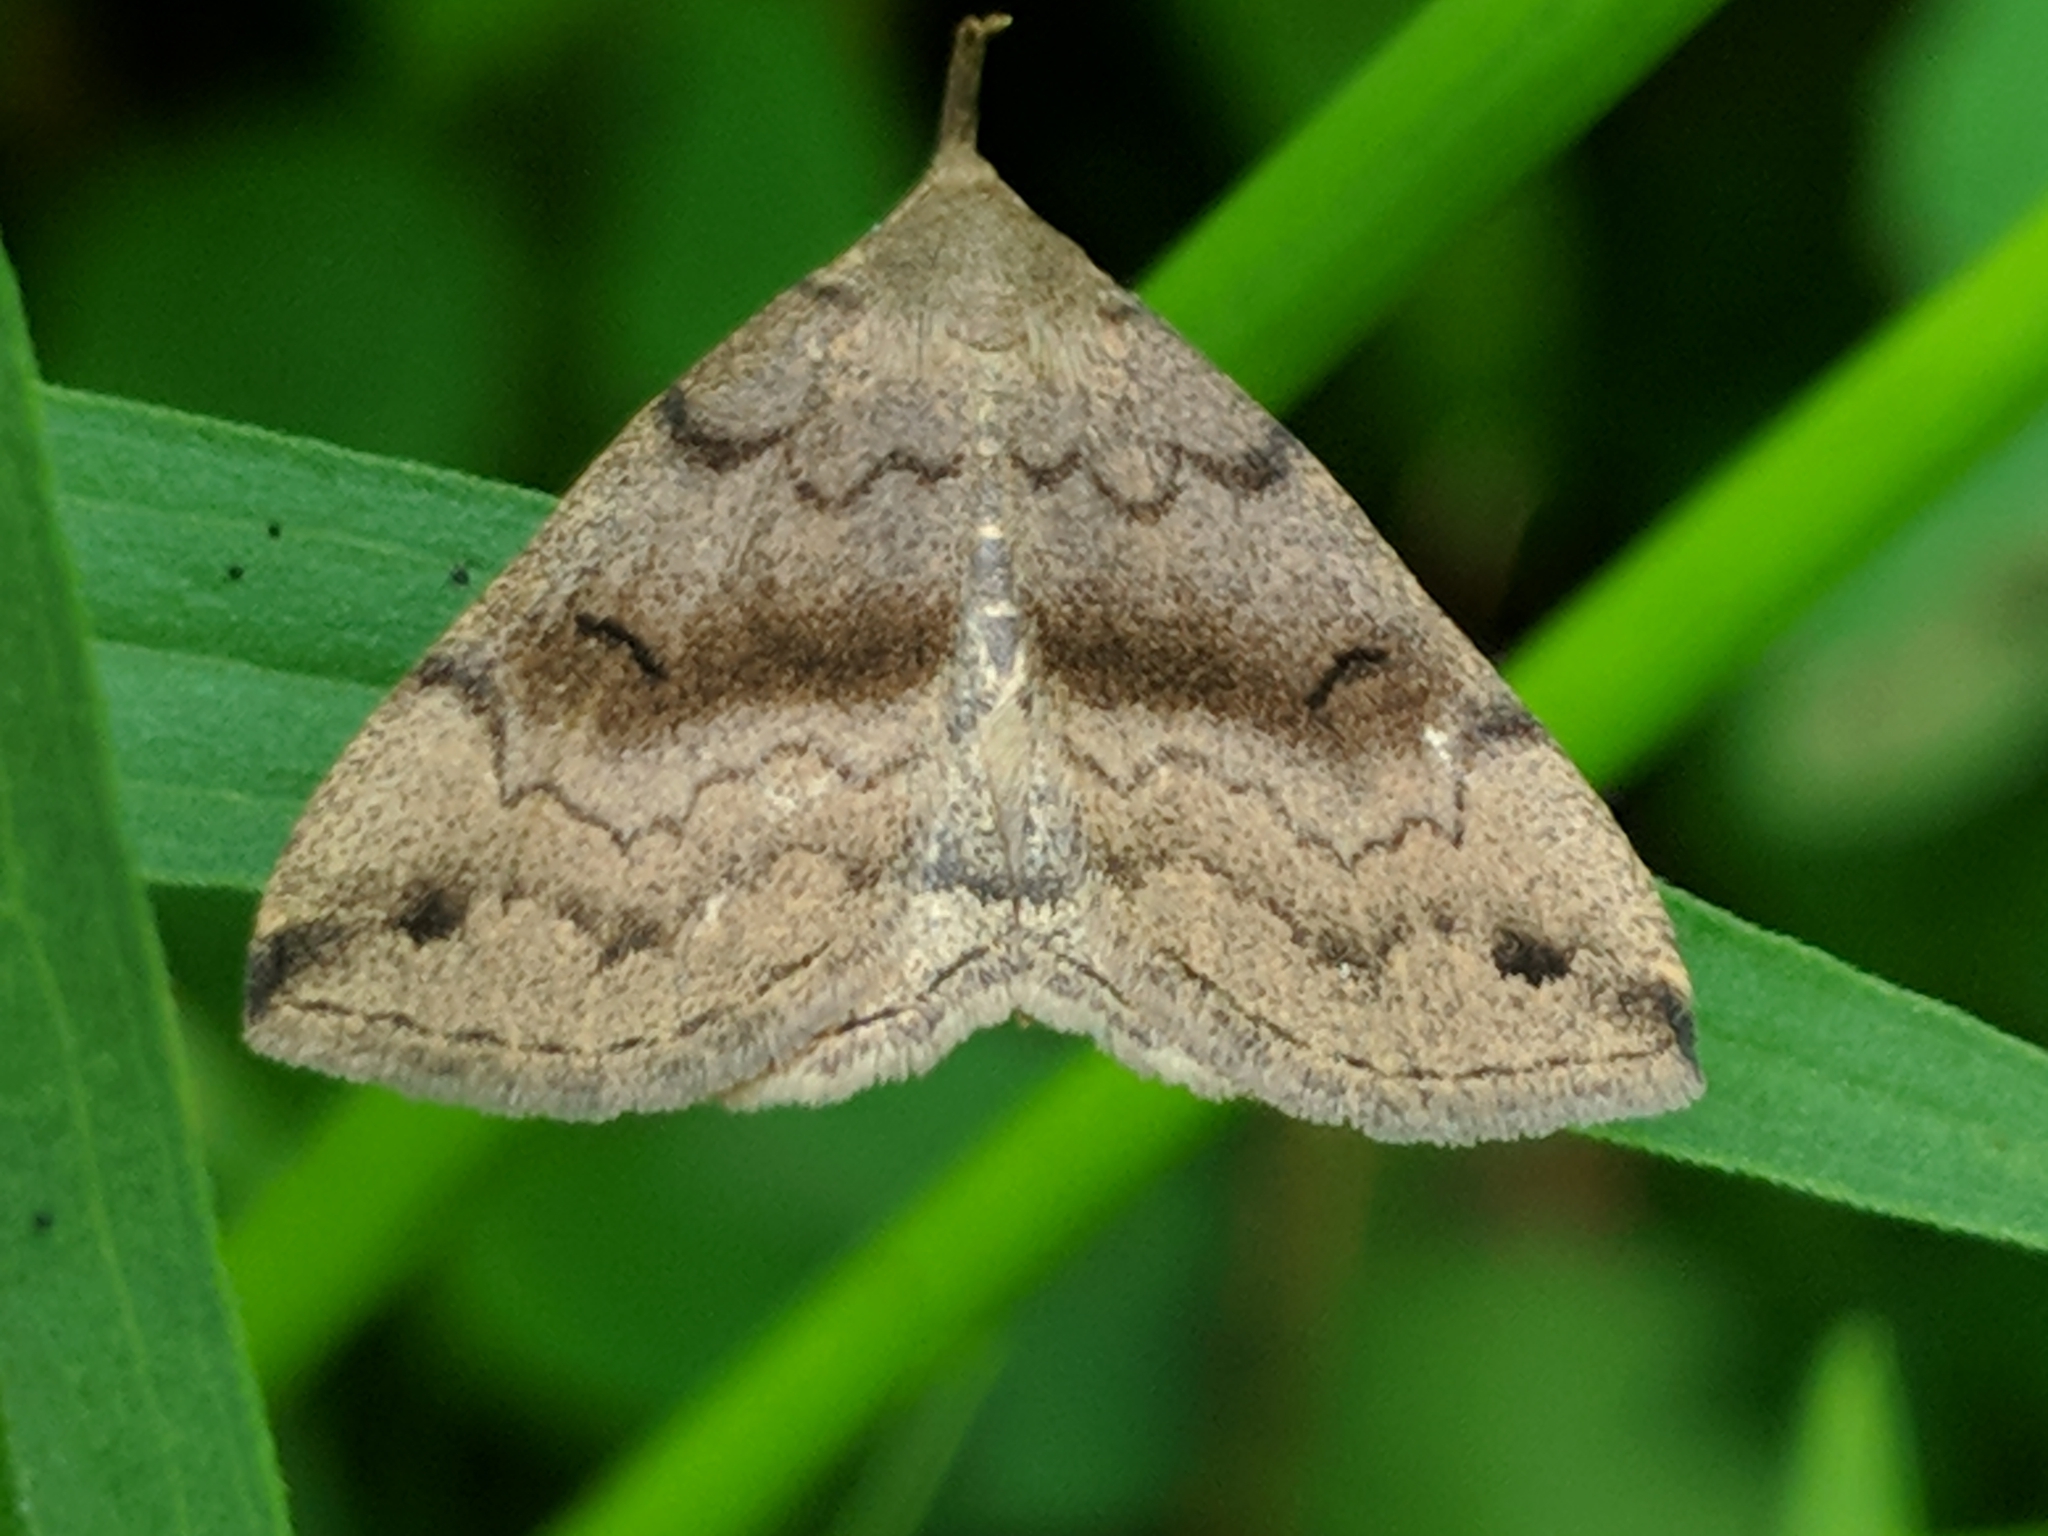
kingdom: Animalia
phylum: Arthropoda
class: Insecta
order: Lepidoptera
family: Erebidae
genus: Phalaenostola
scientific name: Phalaenostola eumelusalis
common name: Dark phalaenostola moth
